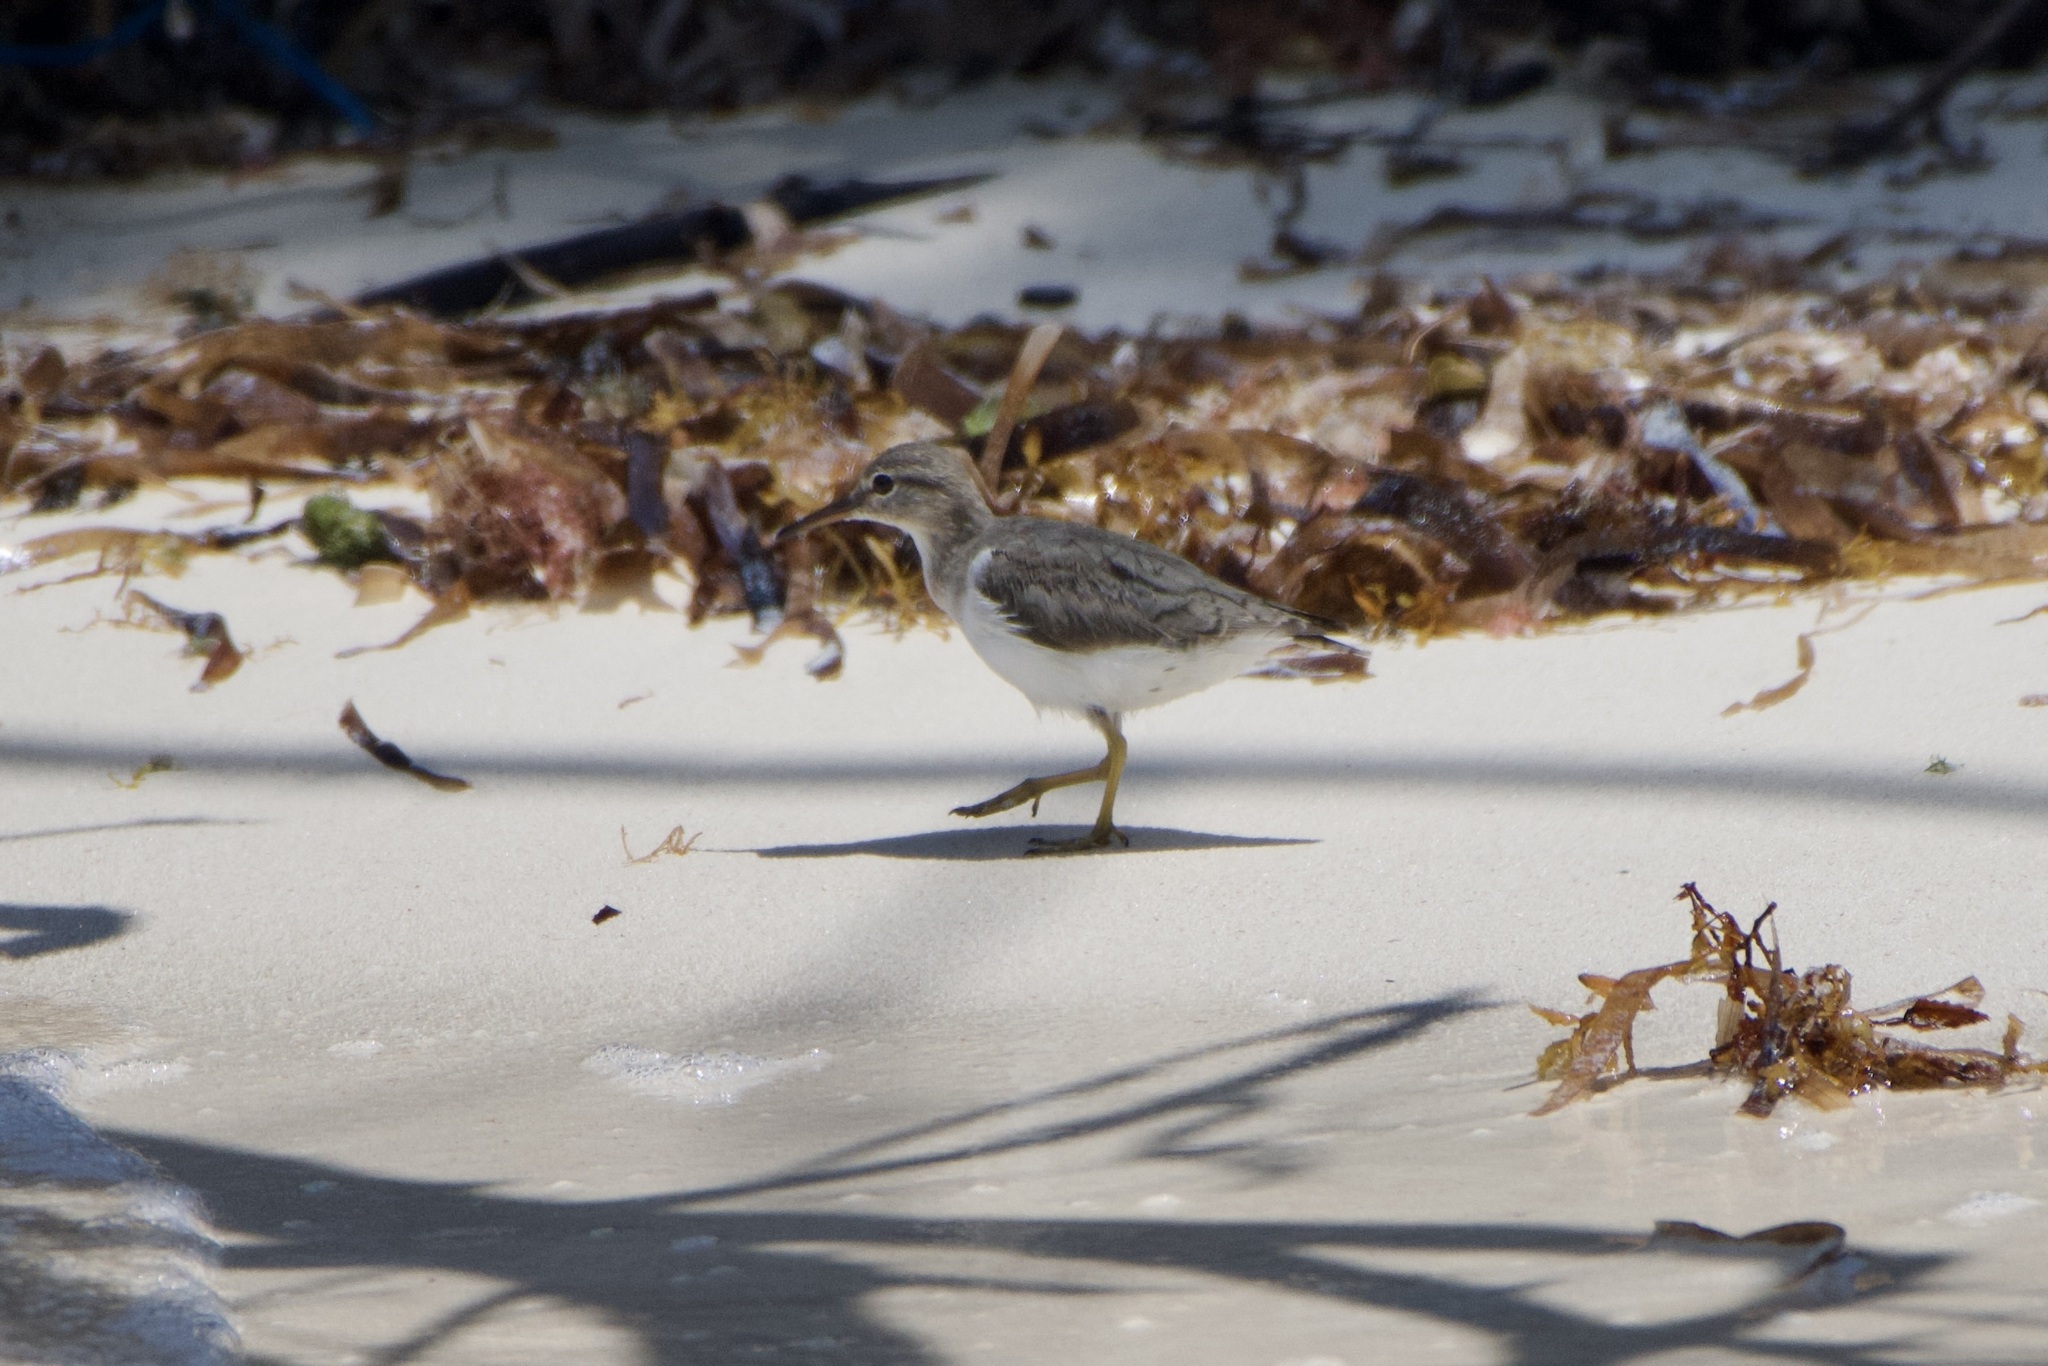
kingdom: Animalia
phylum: Chordata
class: Aves
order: Charadriiformes
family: Scolopacidae
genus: Actitis
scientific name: Actitis macularius
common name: Spotted sandpiper
